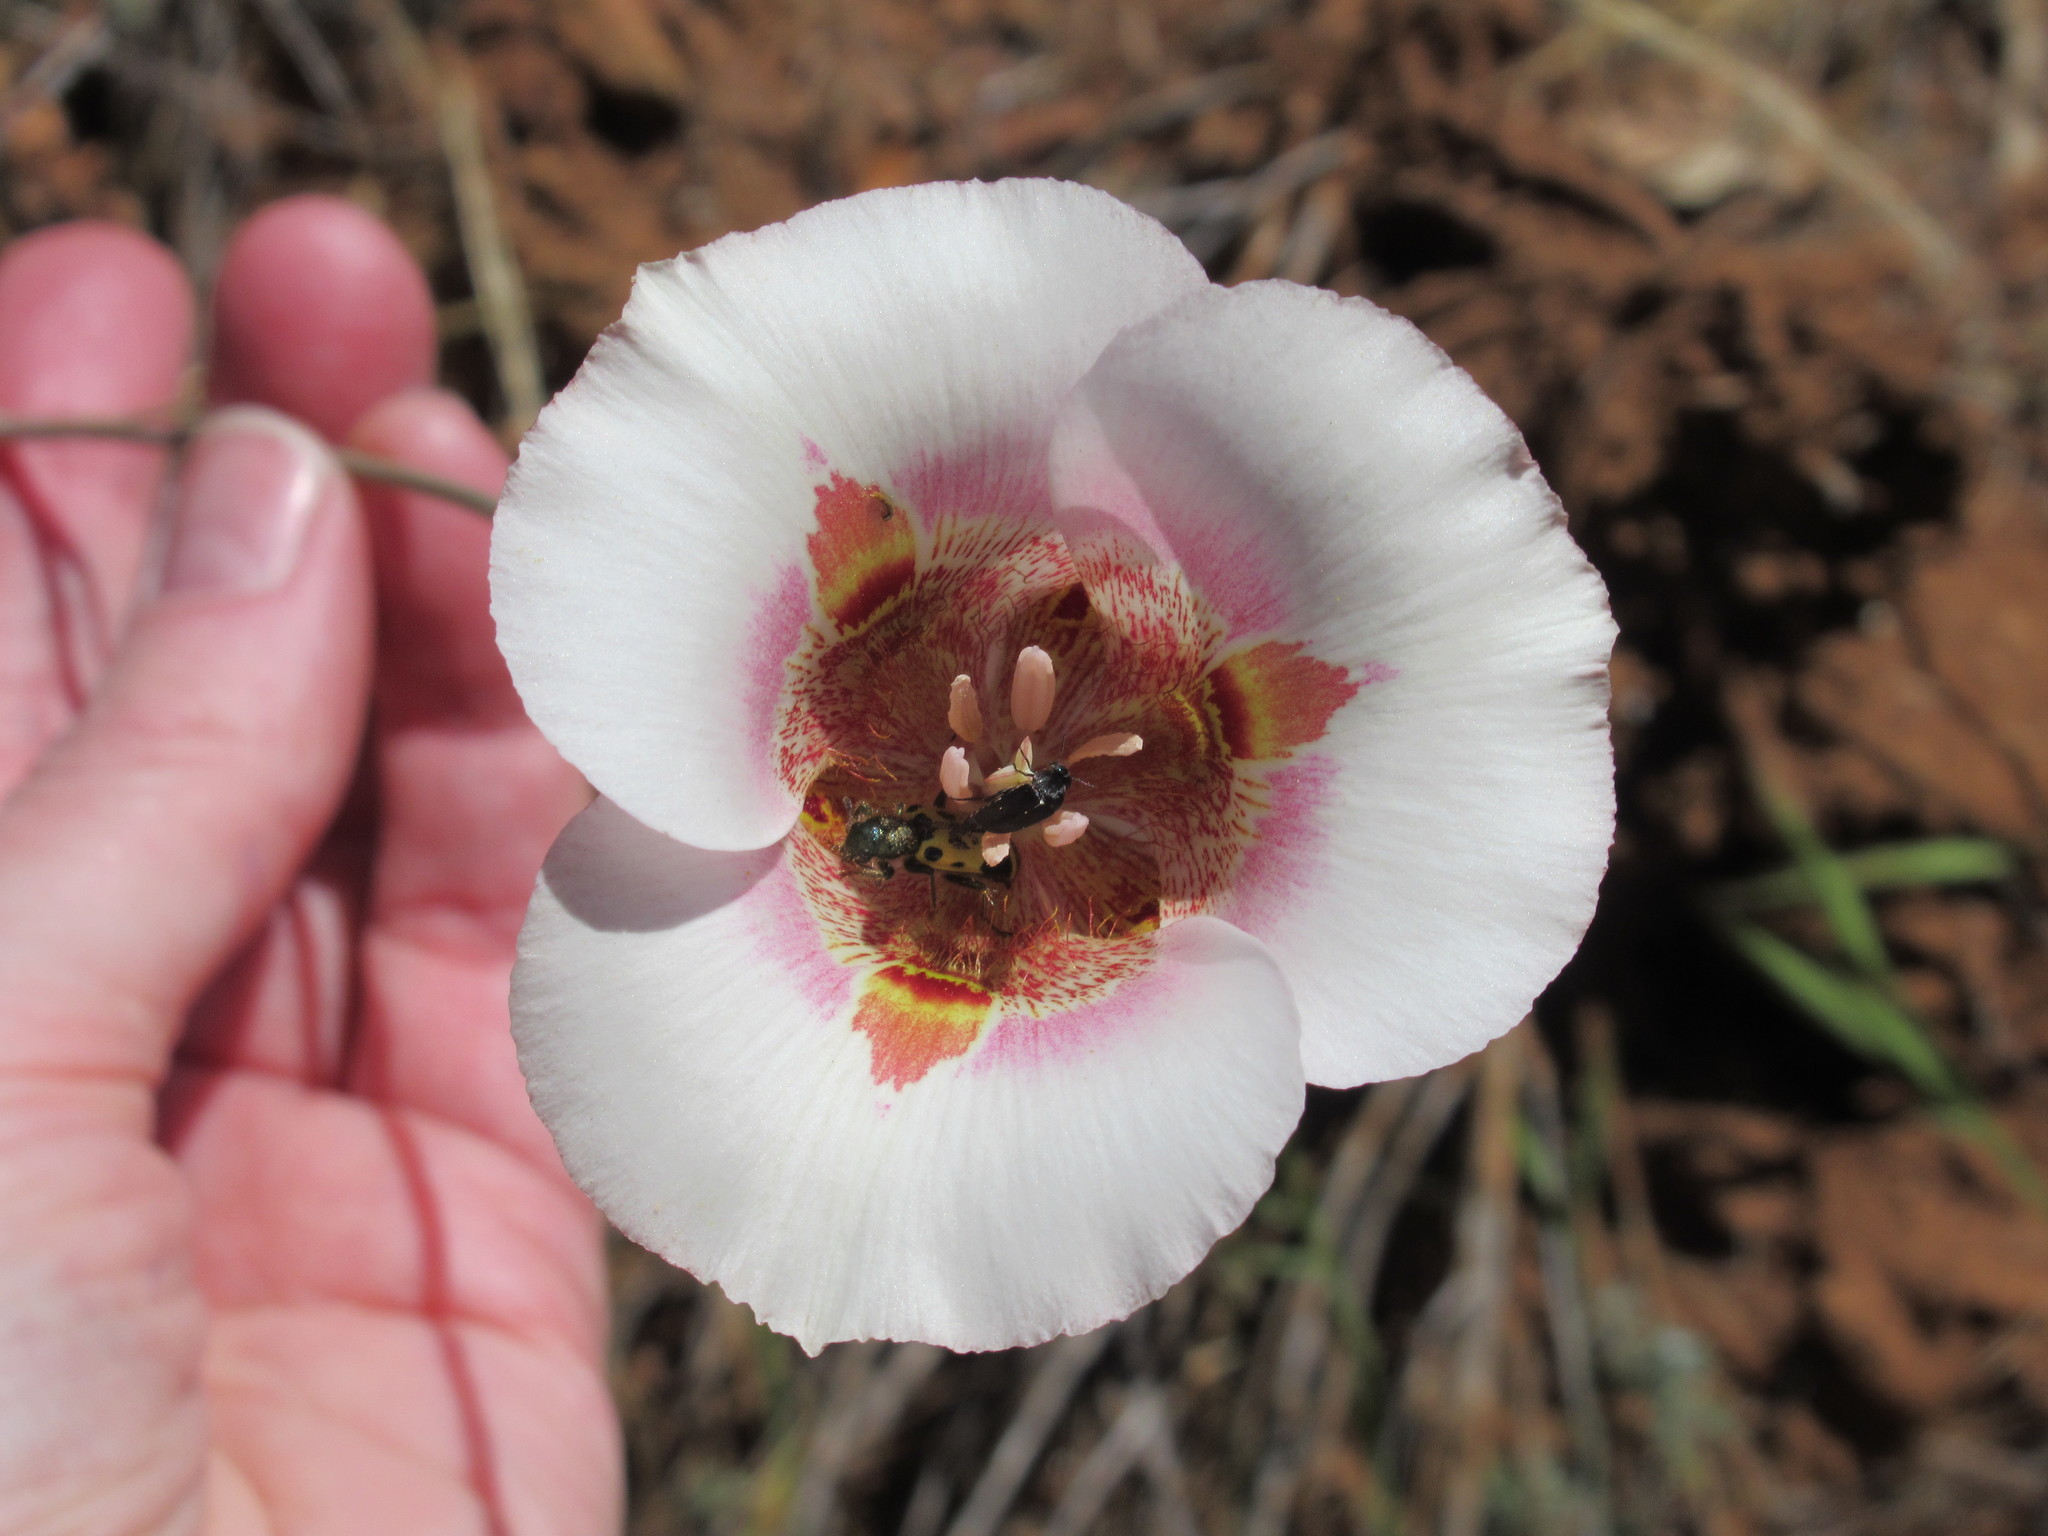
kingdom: Plantae
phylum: Tracheophyta
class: Liliopsida
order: Liliales
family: Liliaceae
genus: Calochortus
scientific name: Calochortus argillosus
